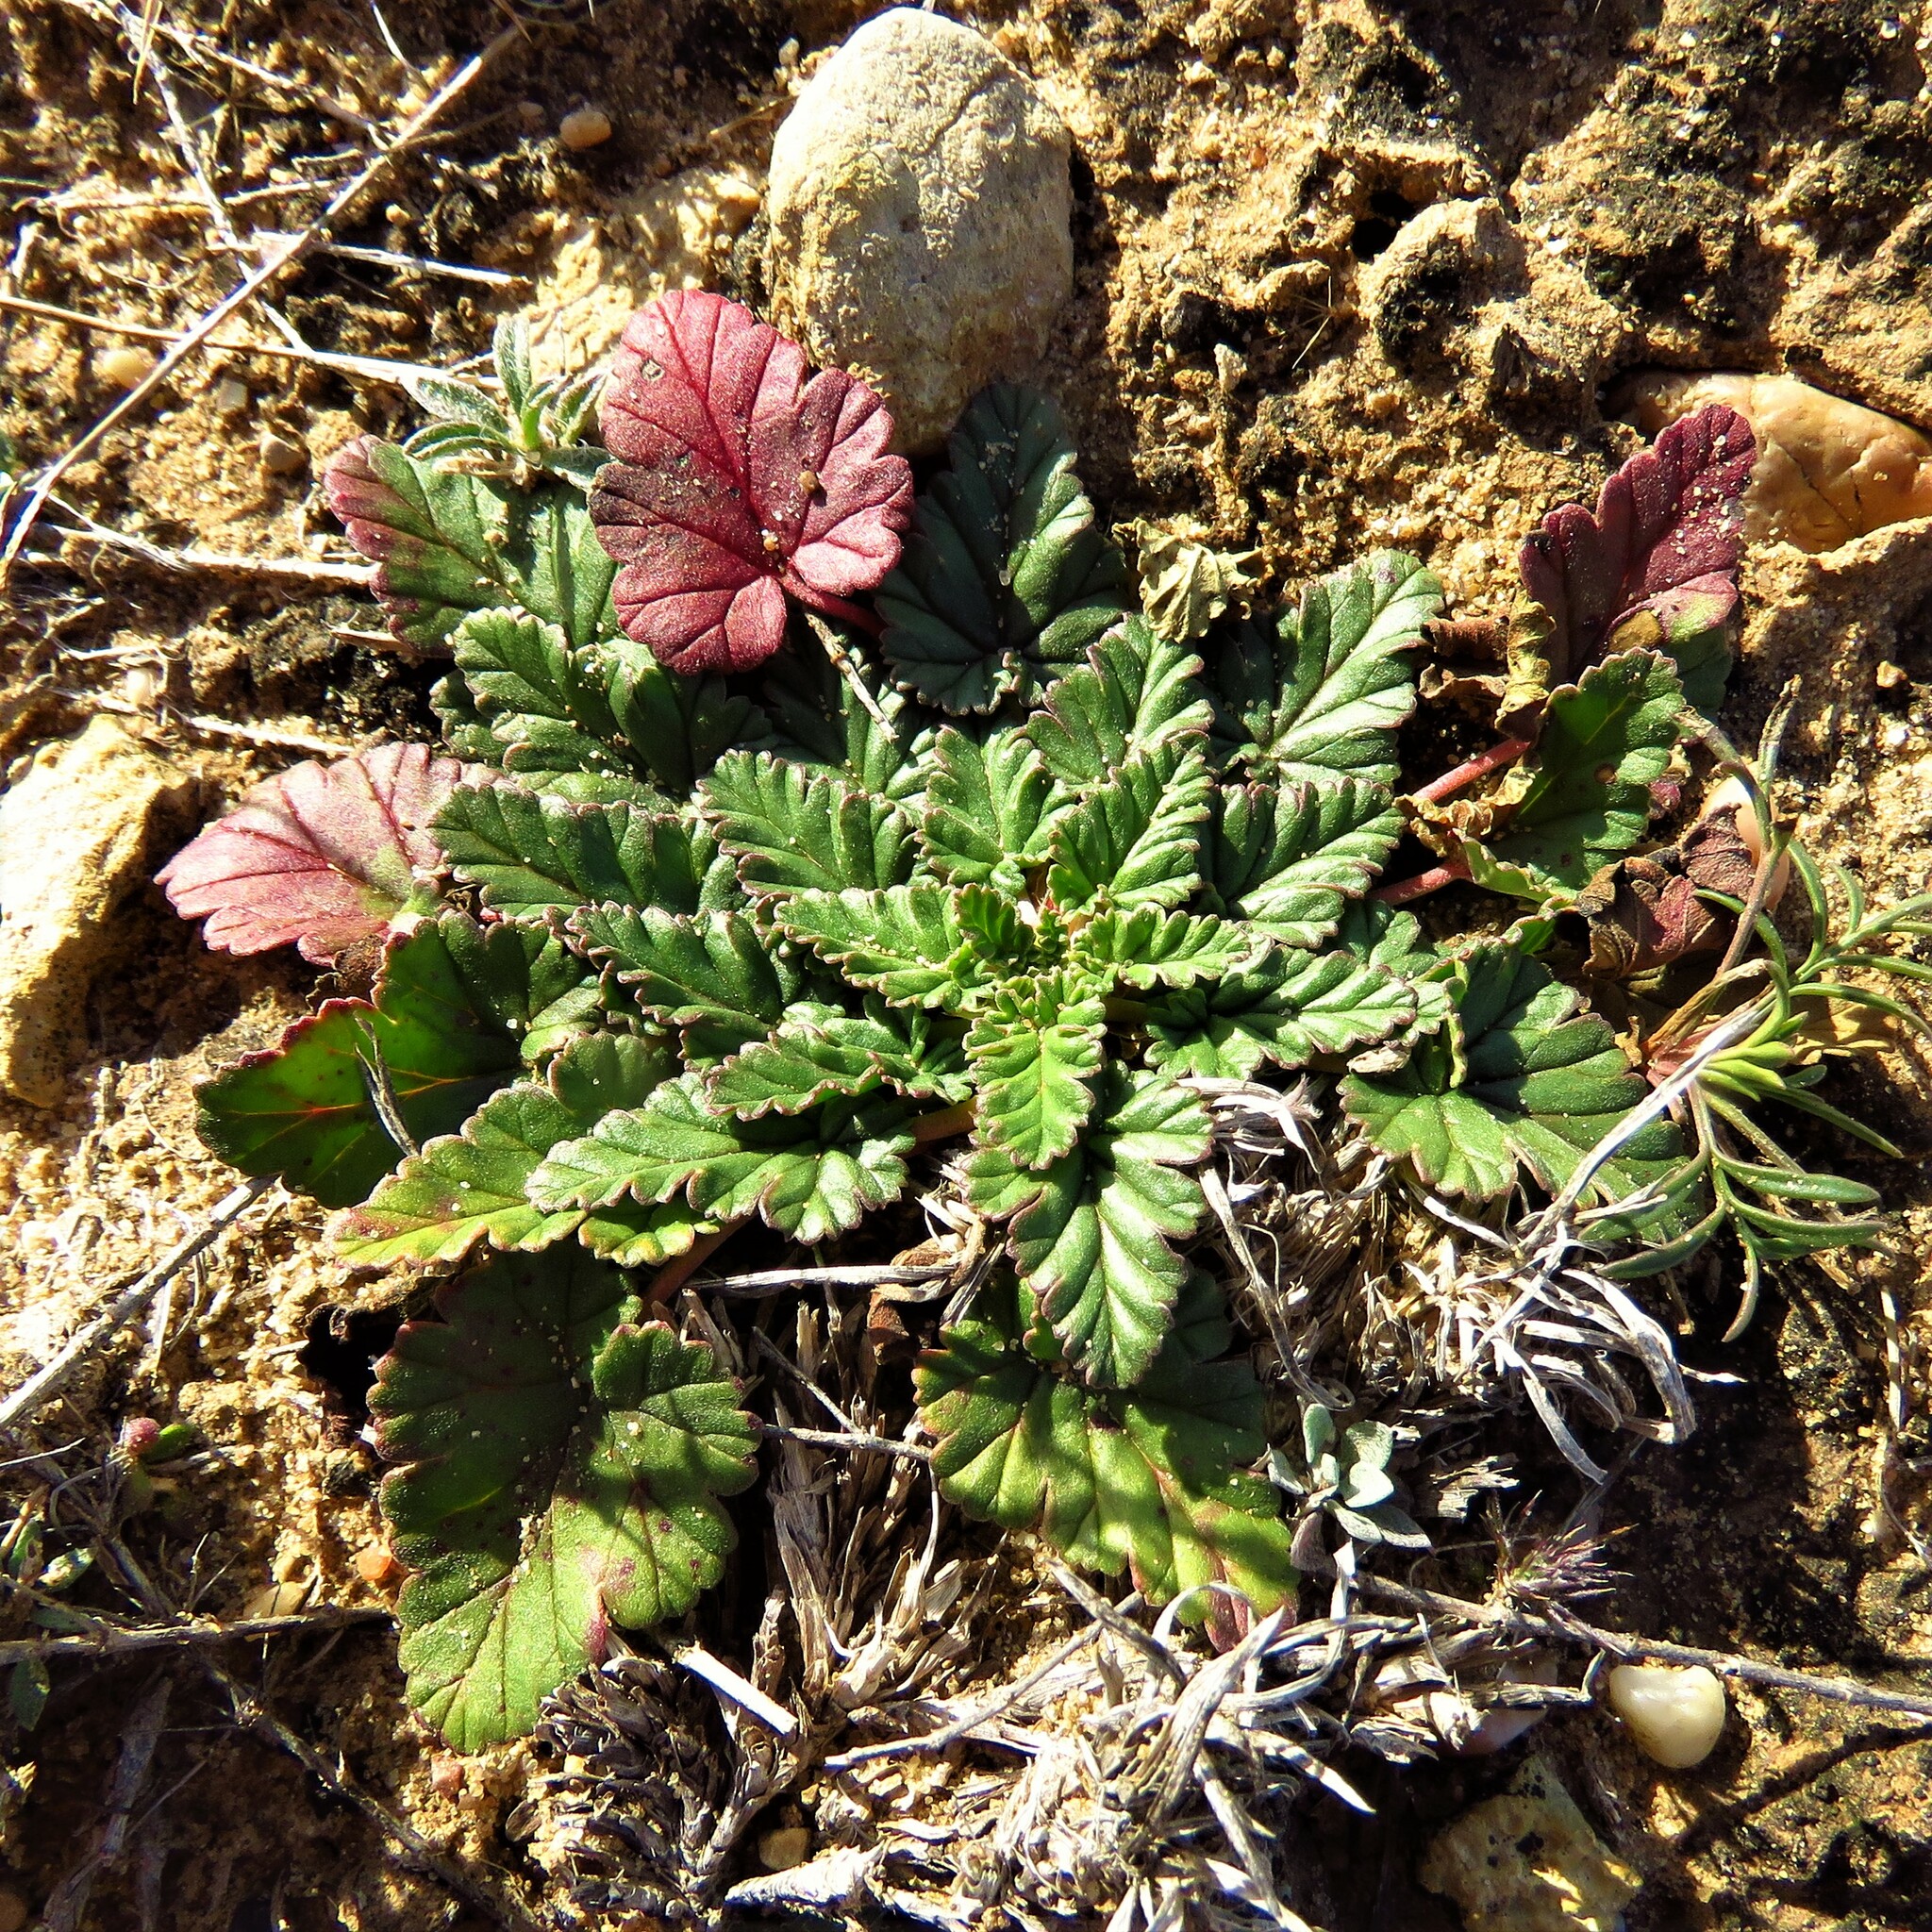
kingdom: Plantae
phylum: Tracheophyta
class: Magnoliopsida
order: Geraniales
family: Geraniaceae
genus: Erodium
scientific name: Erodium texanum
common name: Texas stork's-bill
